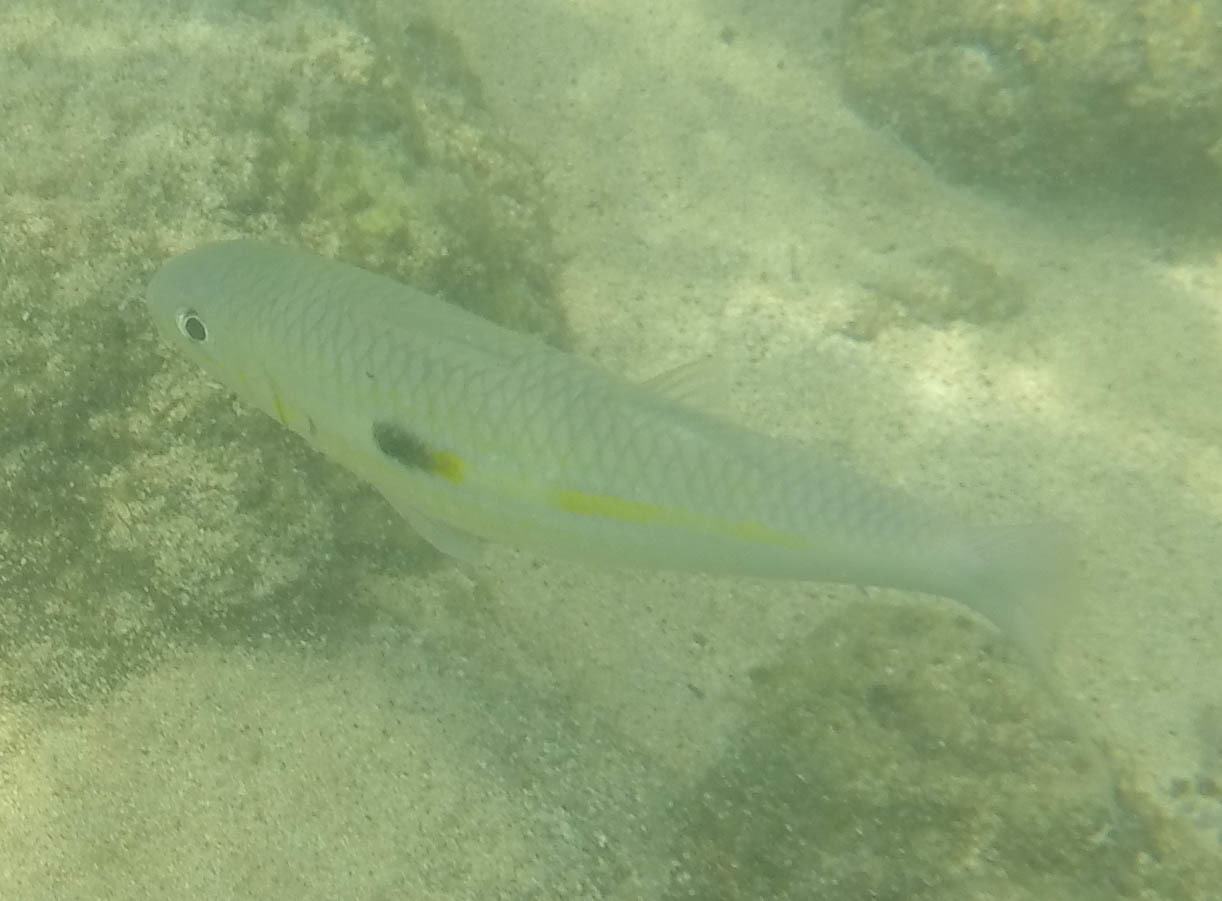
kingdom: Animalia
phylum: Chordata
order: Perciformes
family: Mullidae
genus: Mulloidichthys
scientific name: Mulloidichthys flavolineatus
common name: Yellowstripe goatfish
